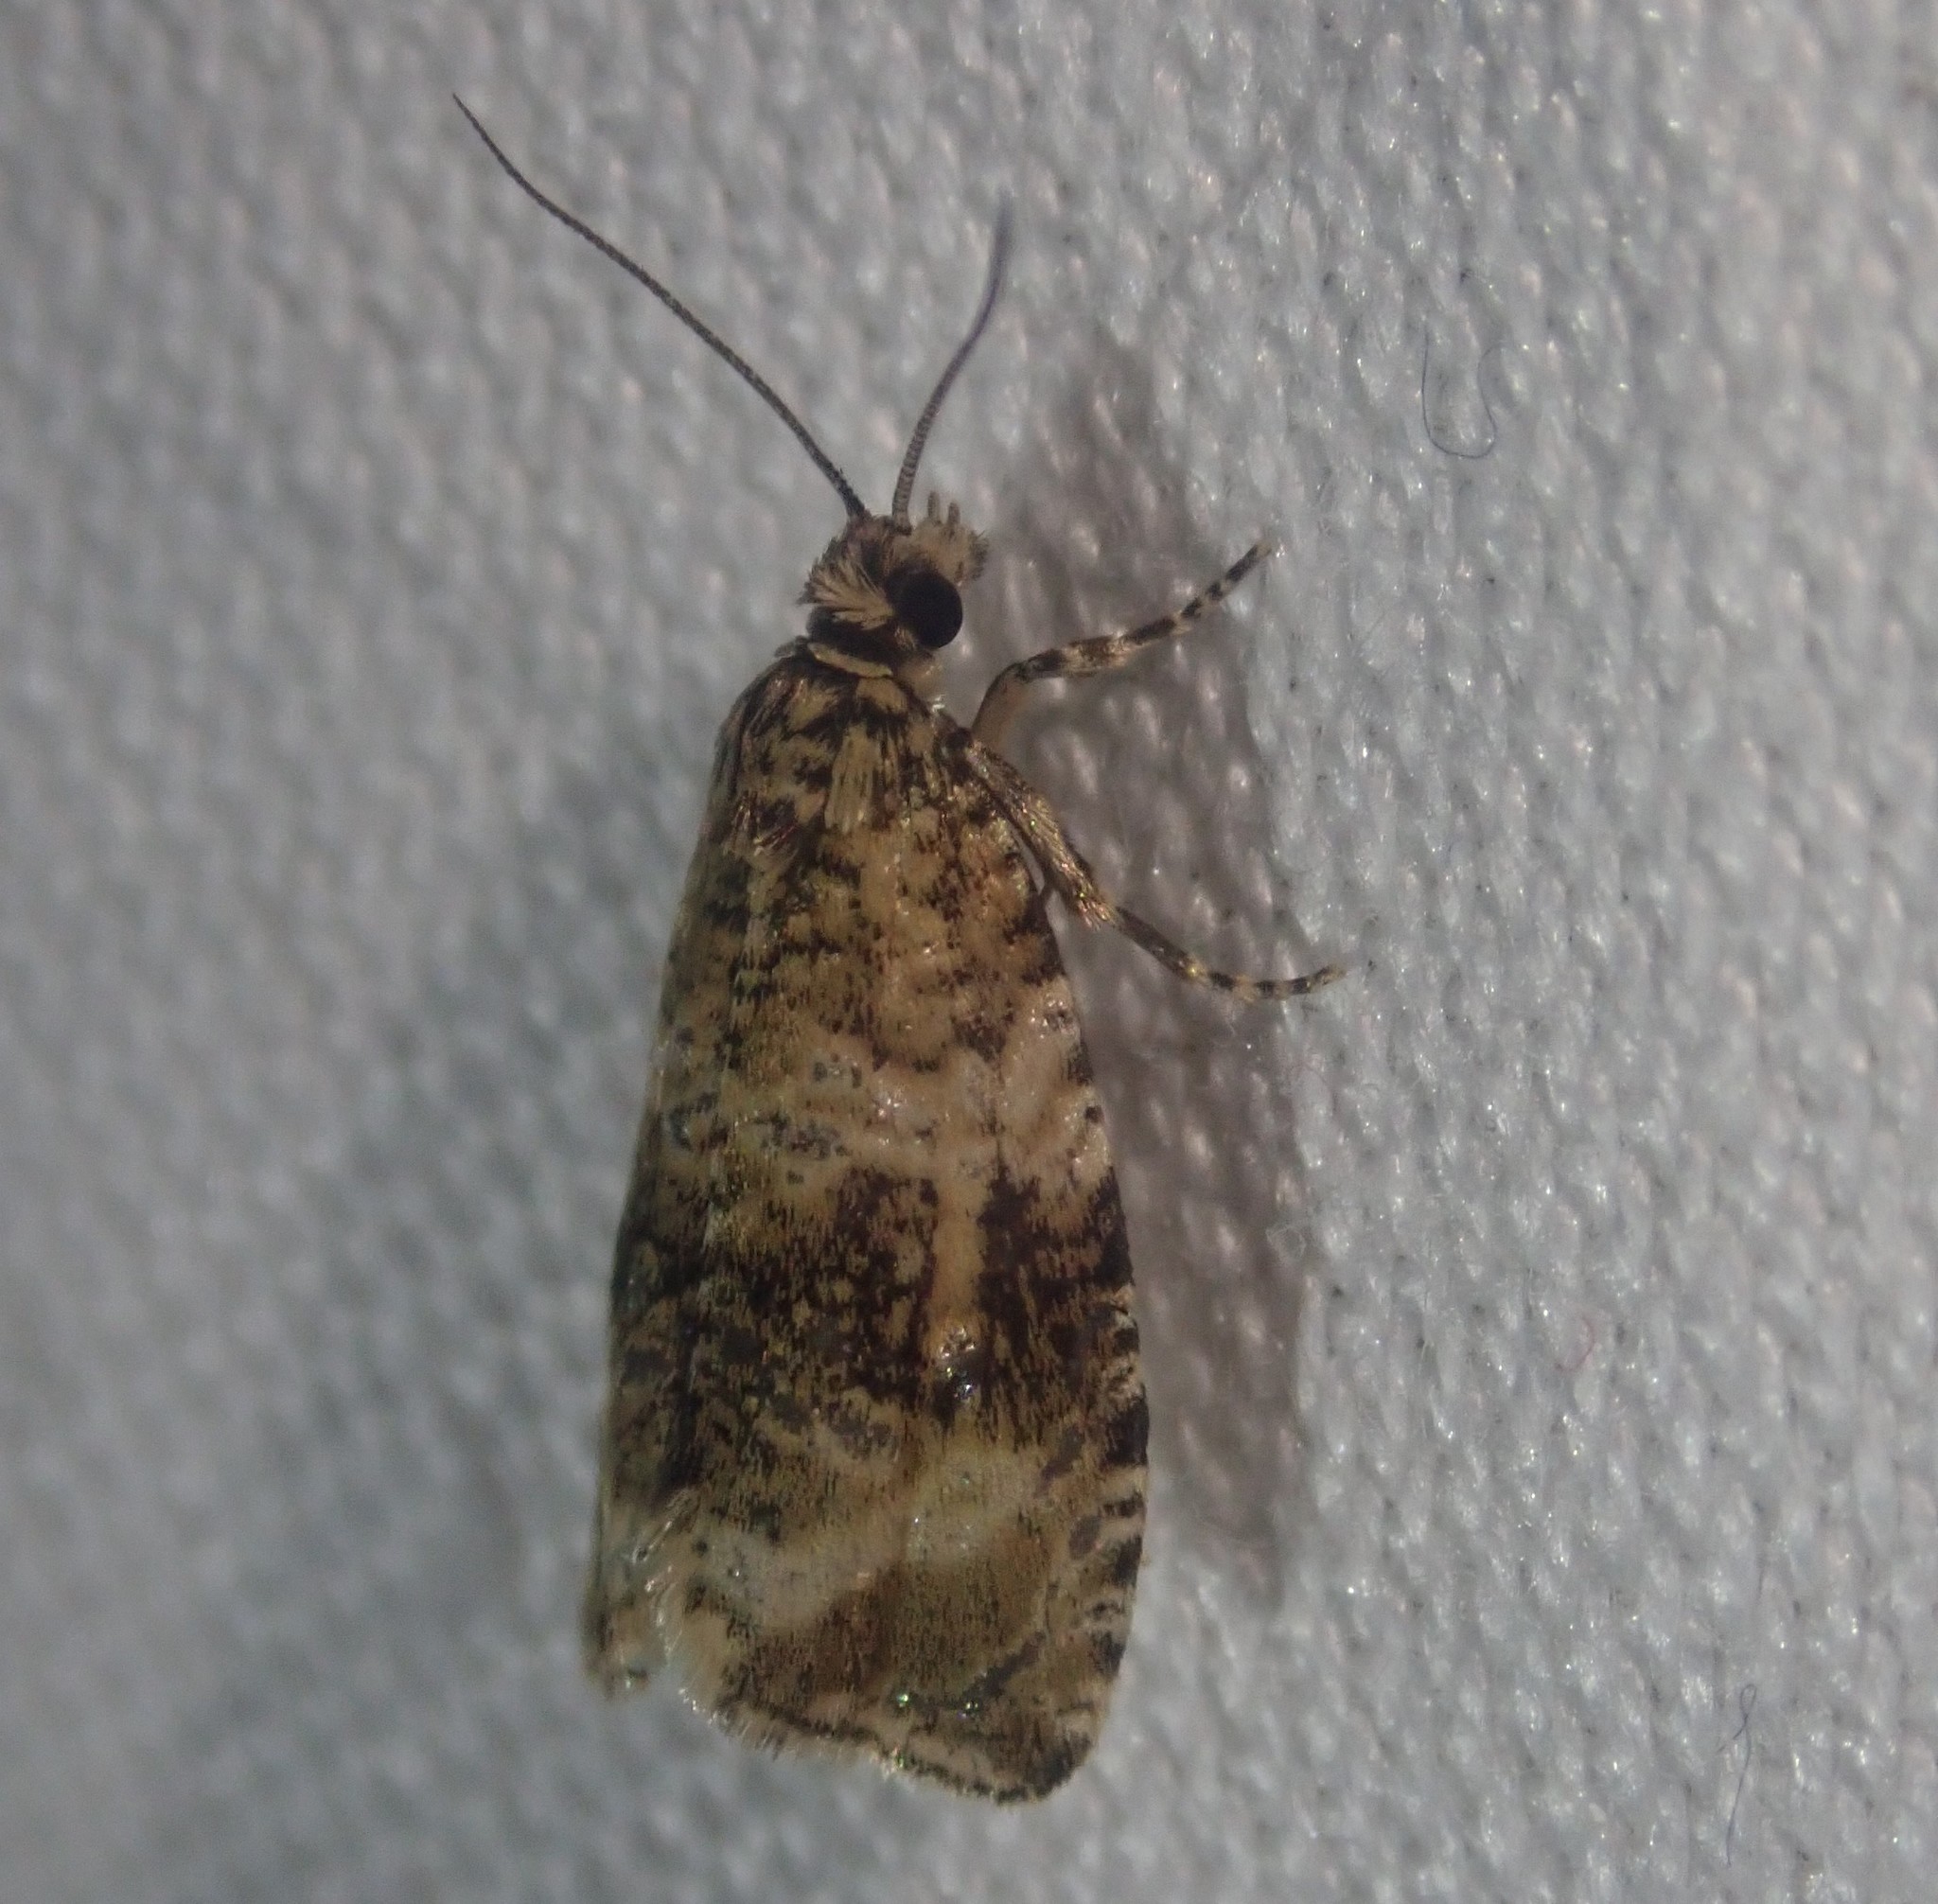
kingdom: Animalia
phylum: Arthropoda
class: Insecta
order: Lepidoptera
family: Tortricidae
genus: Syricoris
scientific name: Syricoris lacunana
